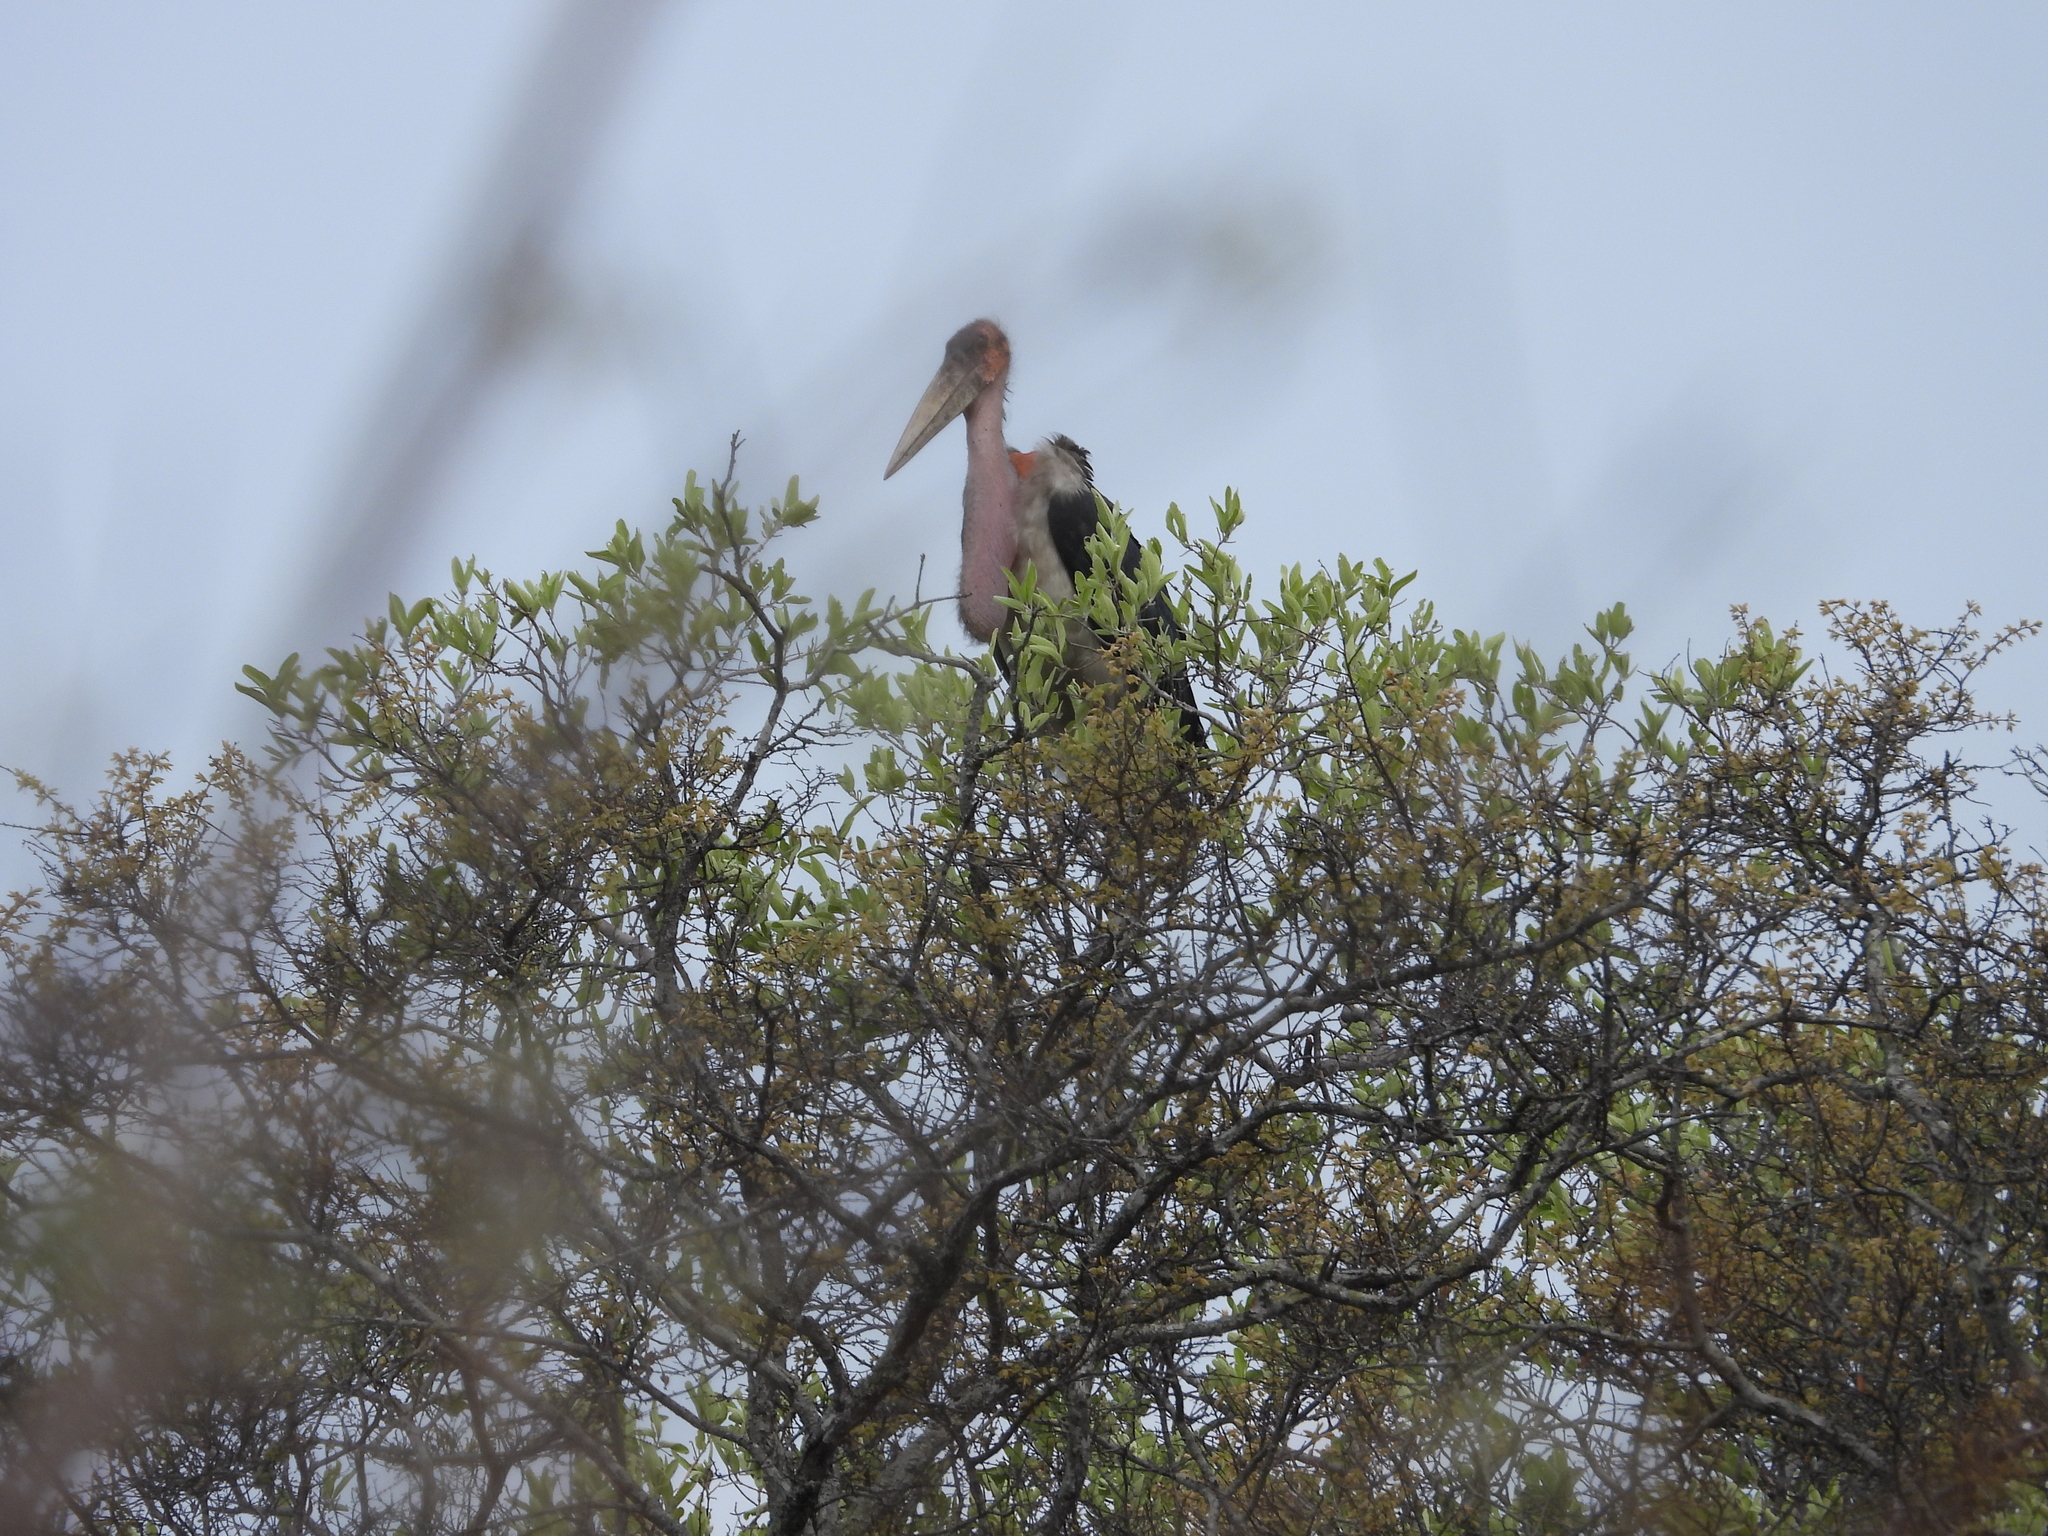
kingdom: Animalia
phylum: Chordata
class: Aves
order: Ciconiiformes
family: Ciconiidae
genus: Leptoptilos
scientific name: Leptoptilos crumenifer
